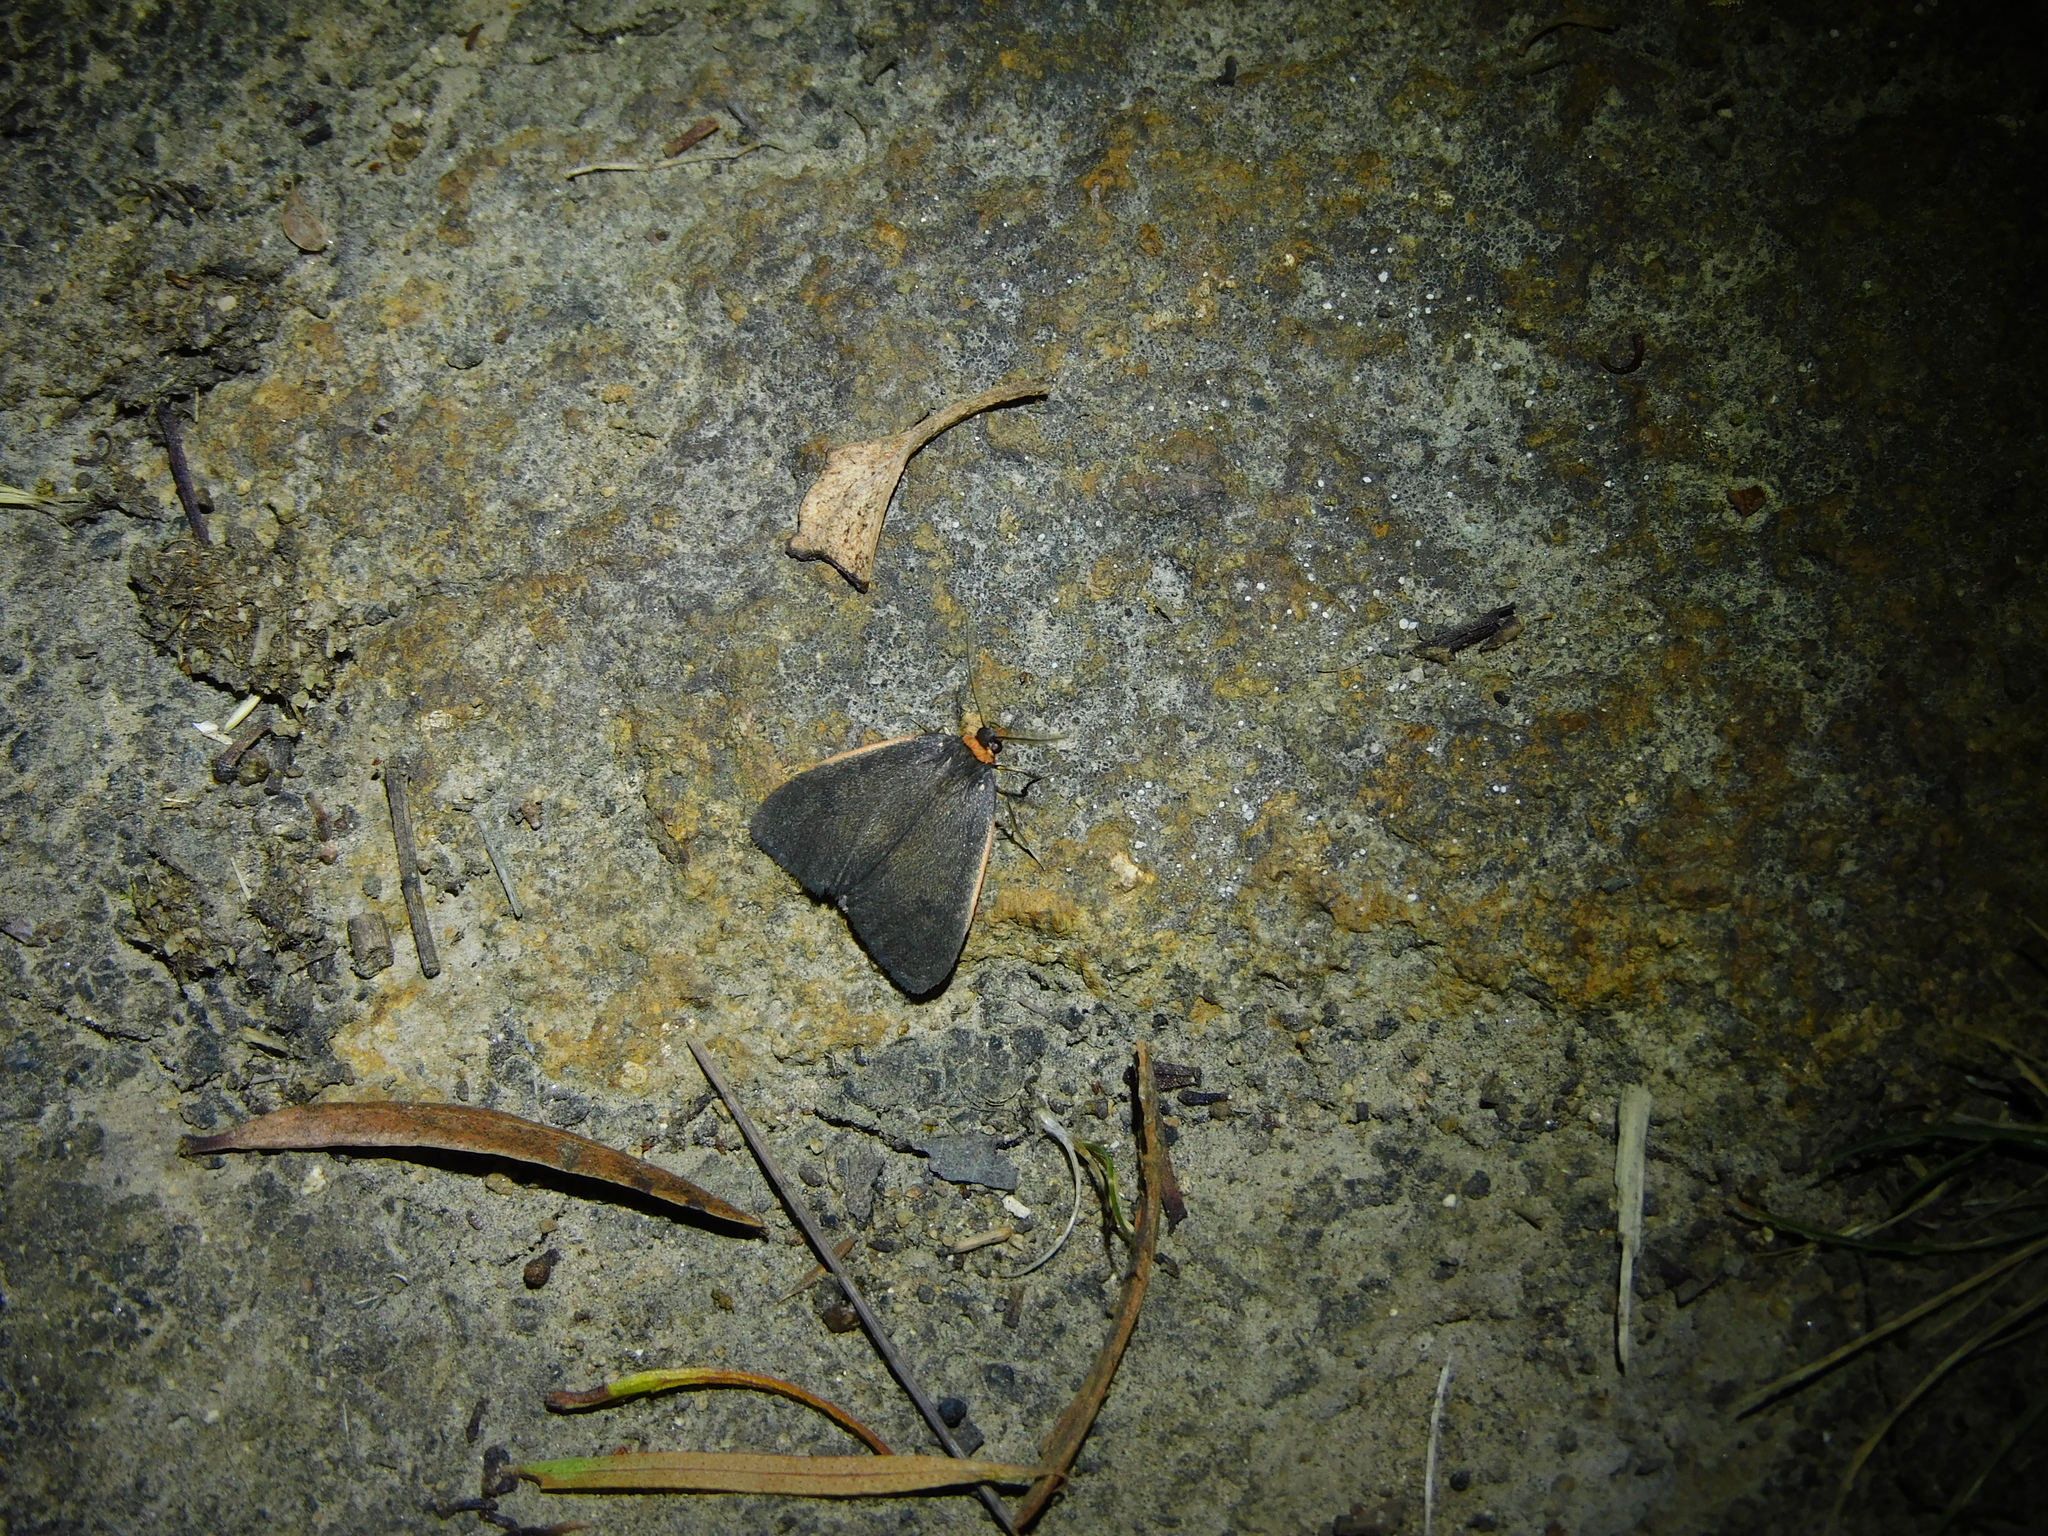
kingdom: Animalia
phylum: Arthropoda
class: Insecta
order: Lepidoptera
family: Erebidae
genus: Castulo
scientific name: Castulo doubledayi
